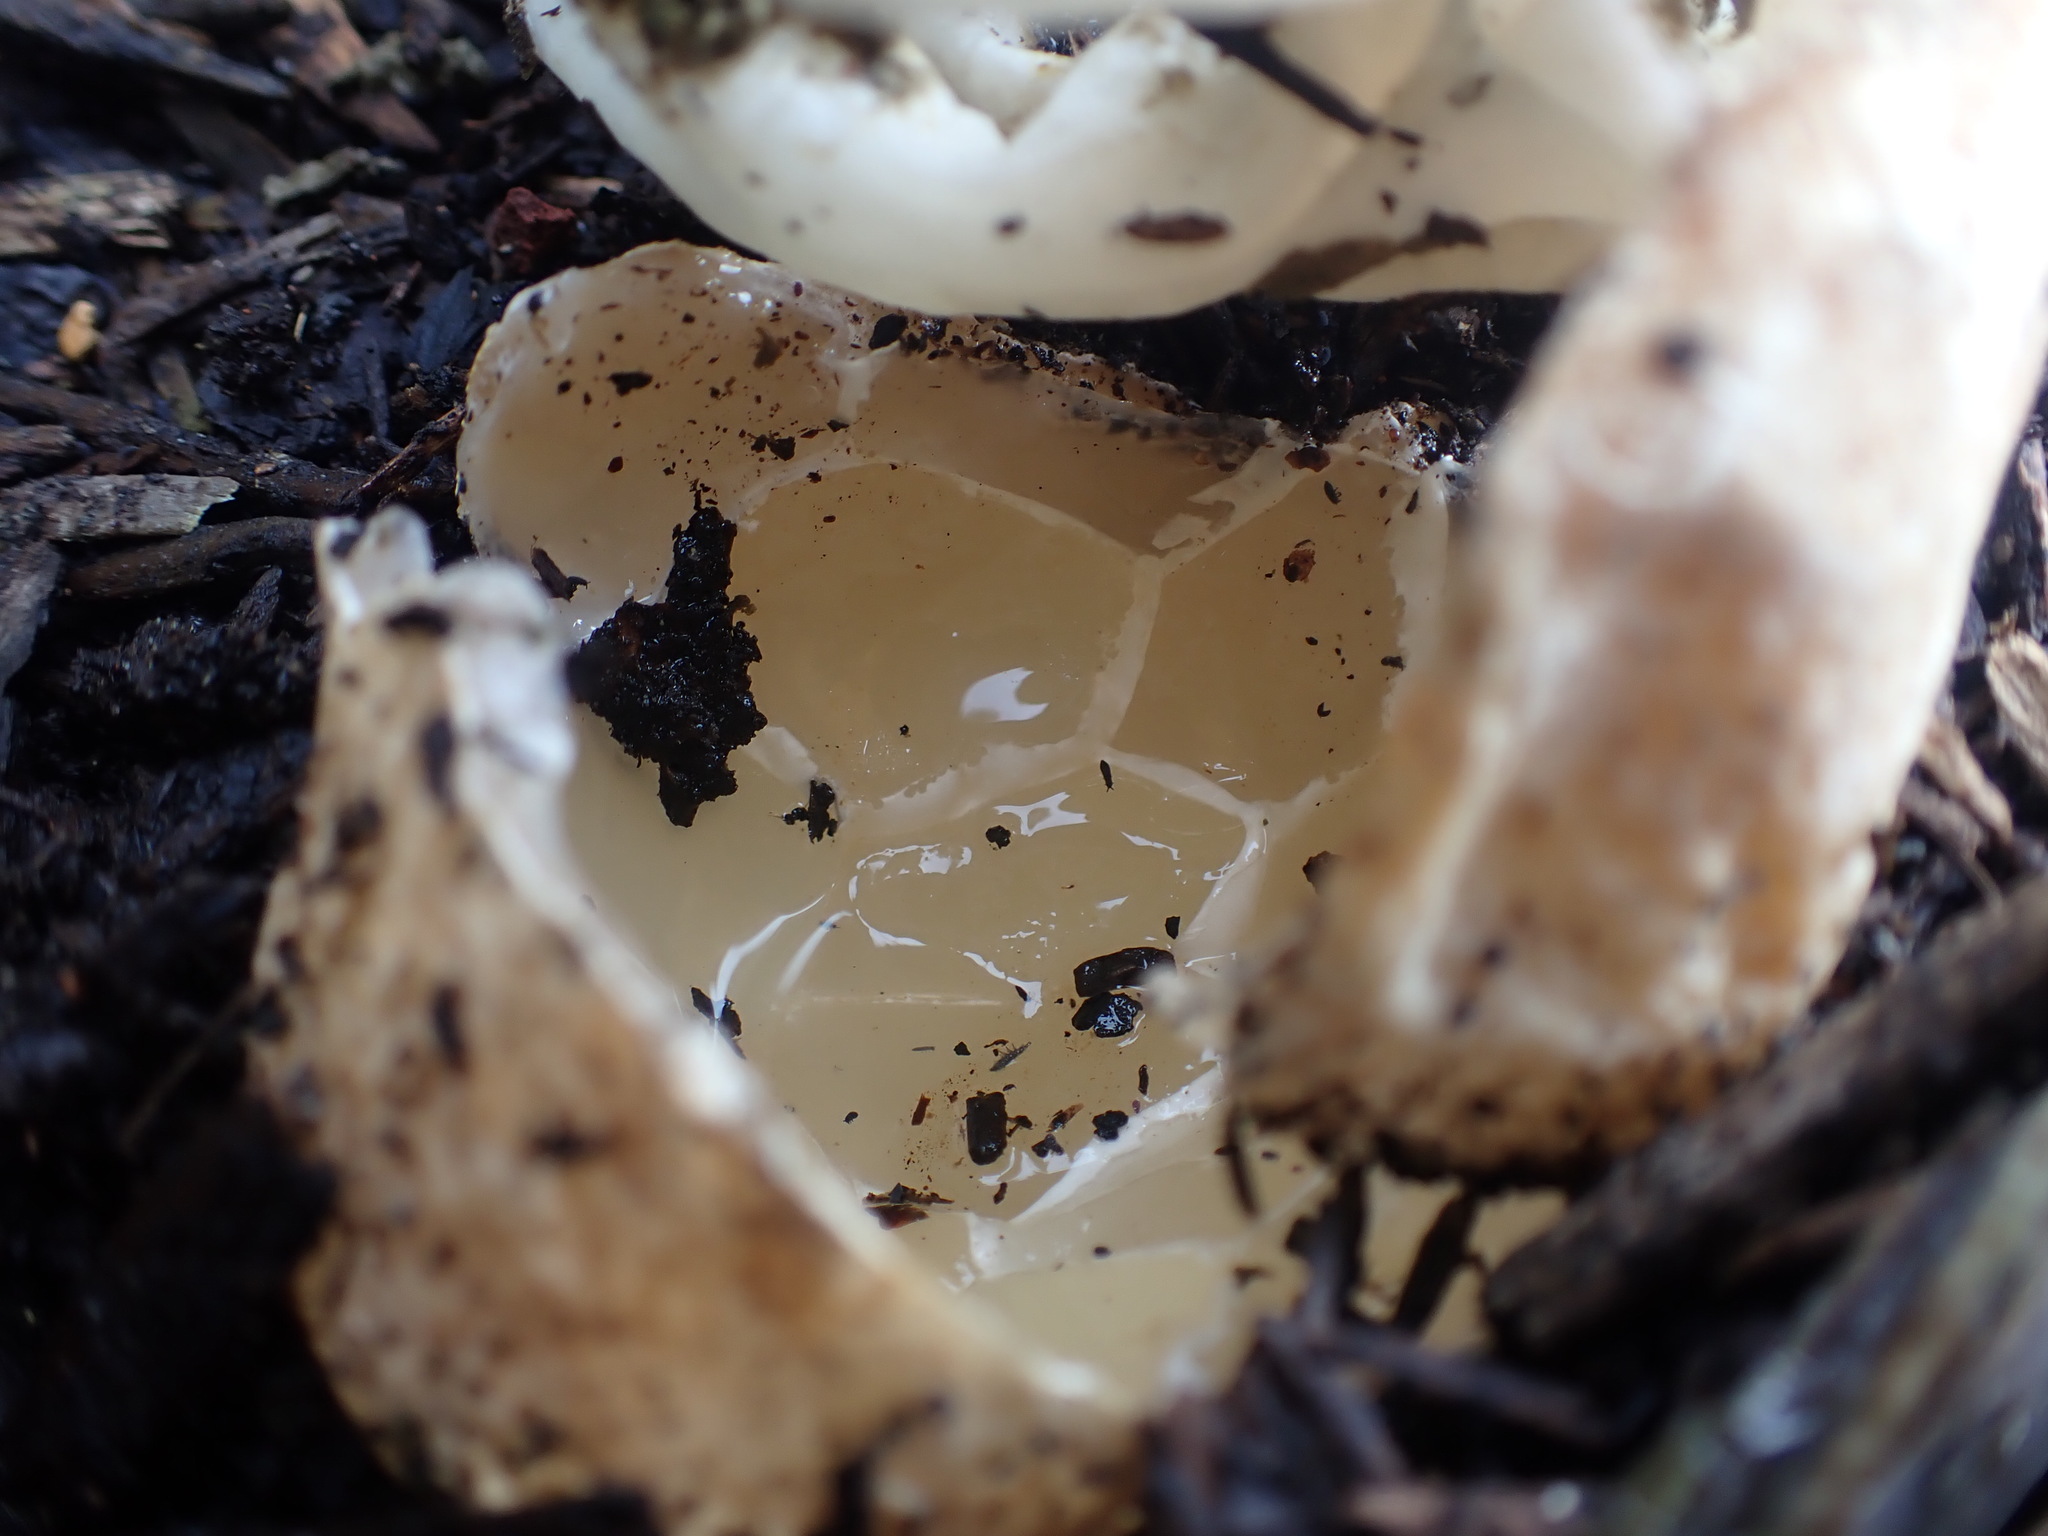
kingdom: Fungi
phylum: Basidiomycota
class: Agaricomycetes
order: Phallales
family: Phallaceae
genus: Ileodictyon
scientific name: Ileodictyon cibarium
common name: Basket fungus
